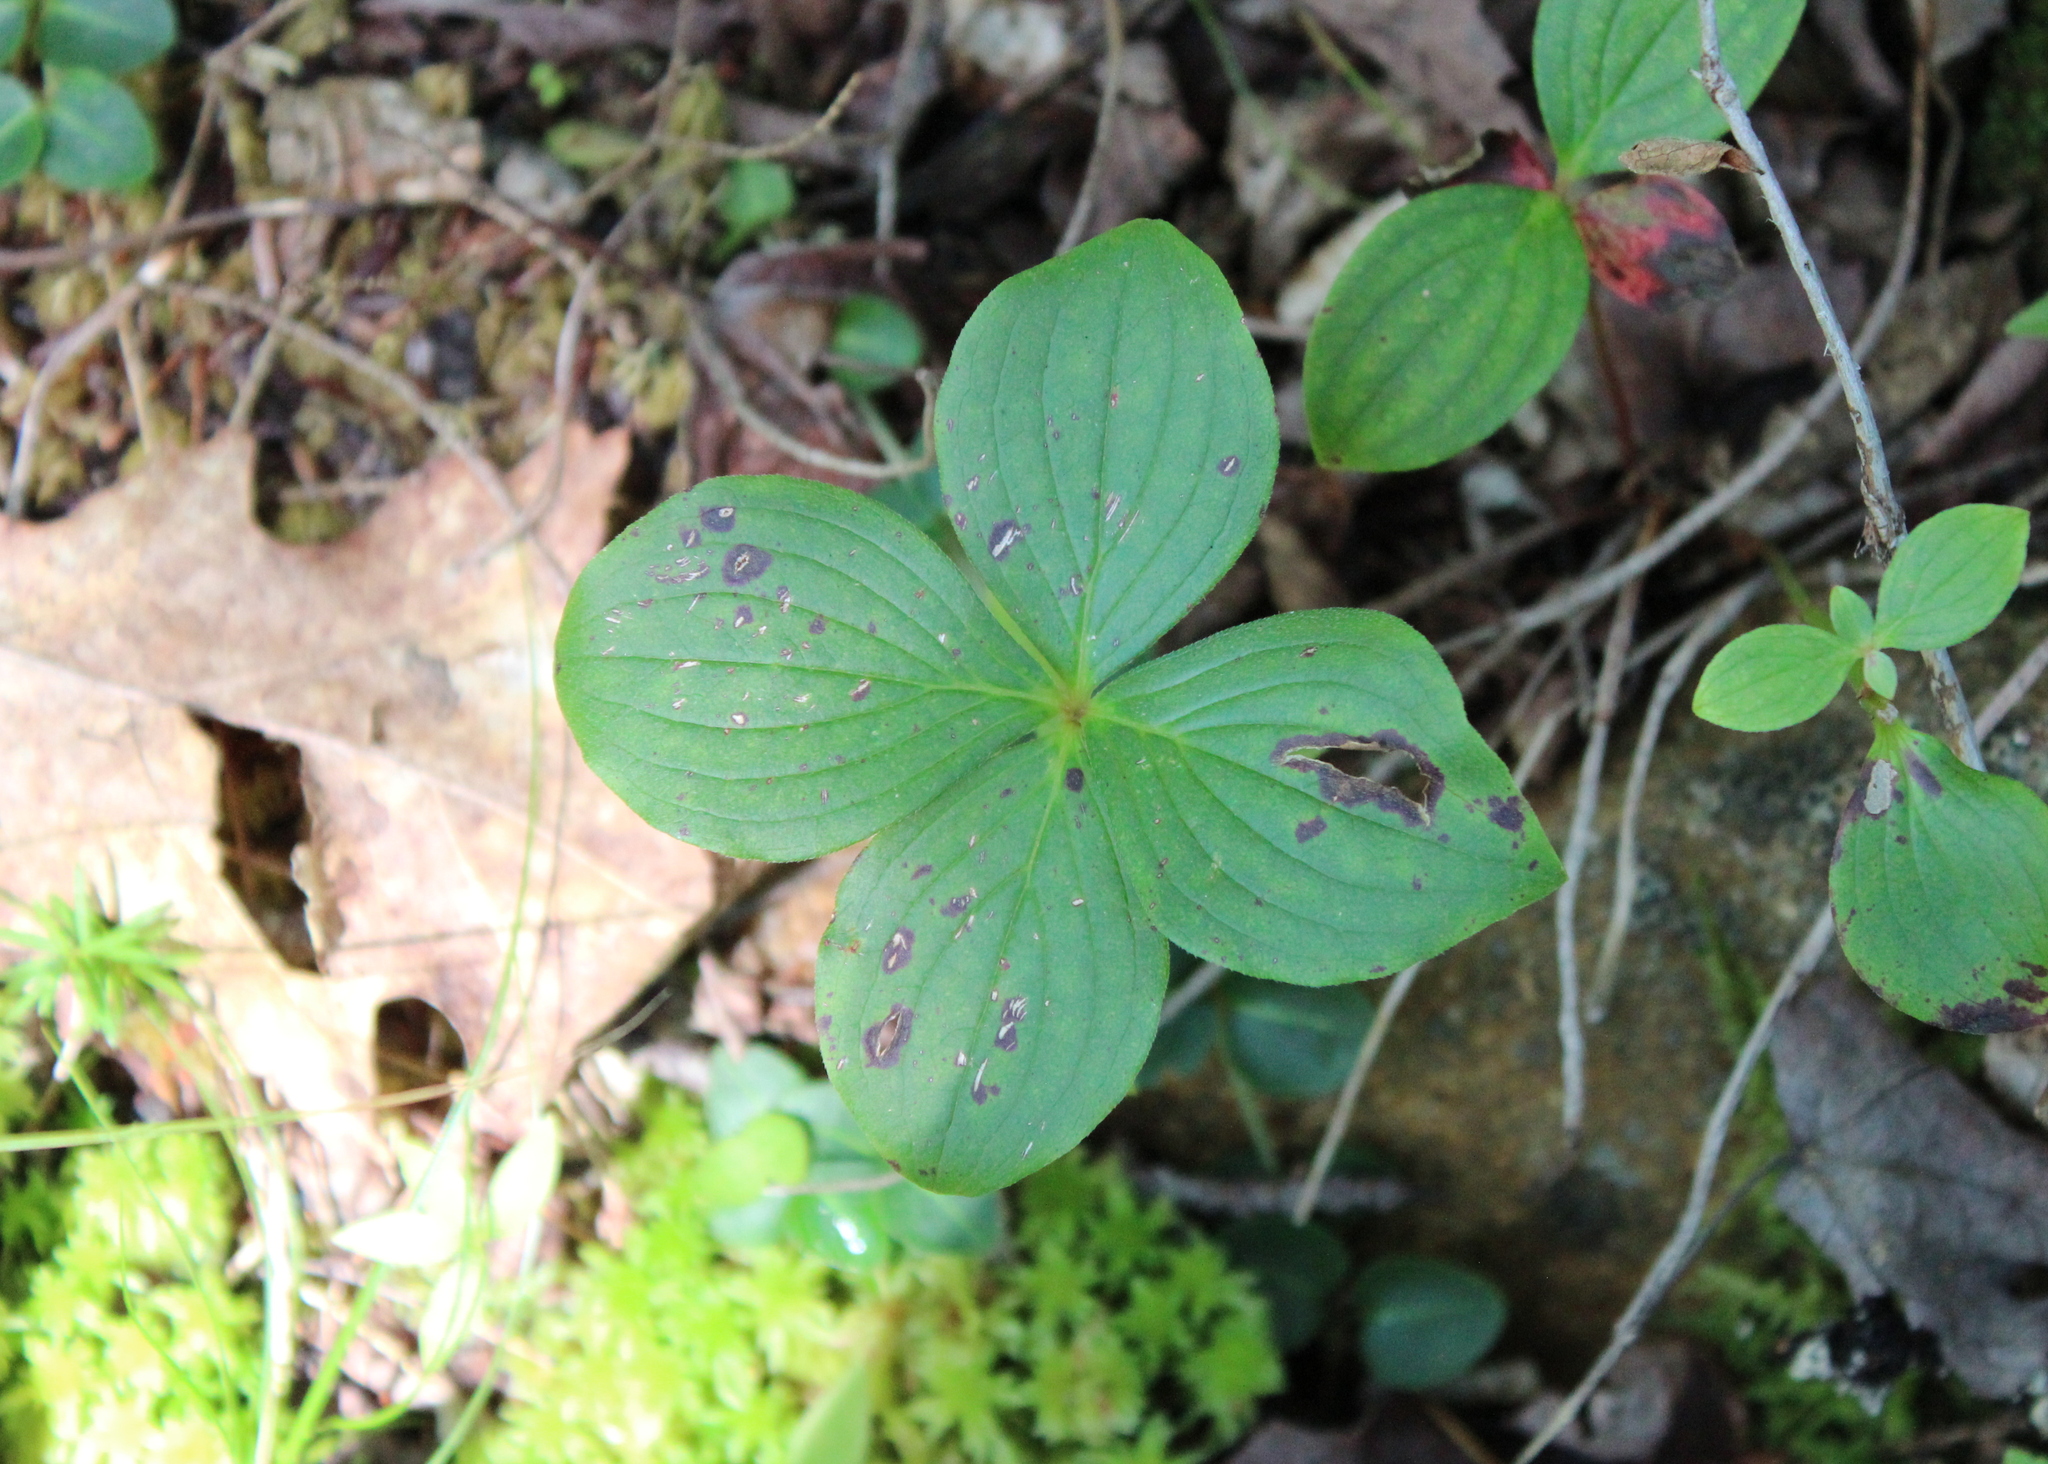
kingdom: Plantae
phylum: Tracheophyta
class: Magnoliopsida
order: Cornales
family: Cornaceae
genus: Cornus
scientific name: Cornus canadensis
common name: Creeping dogwood
